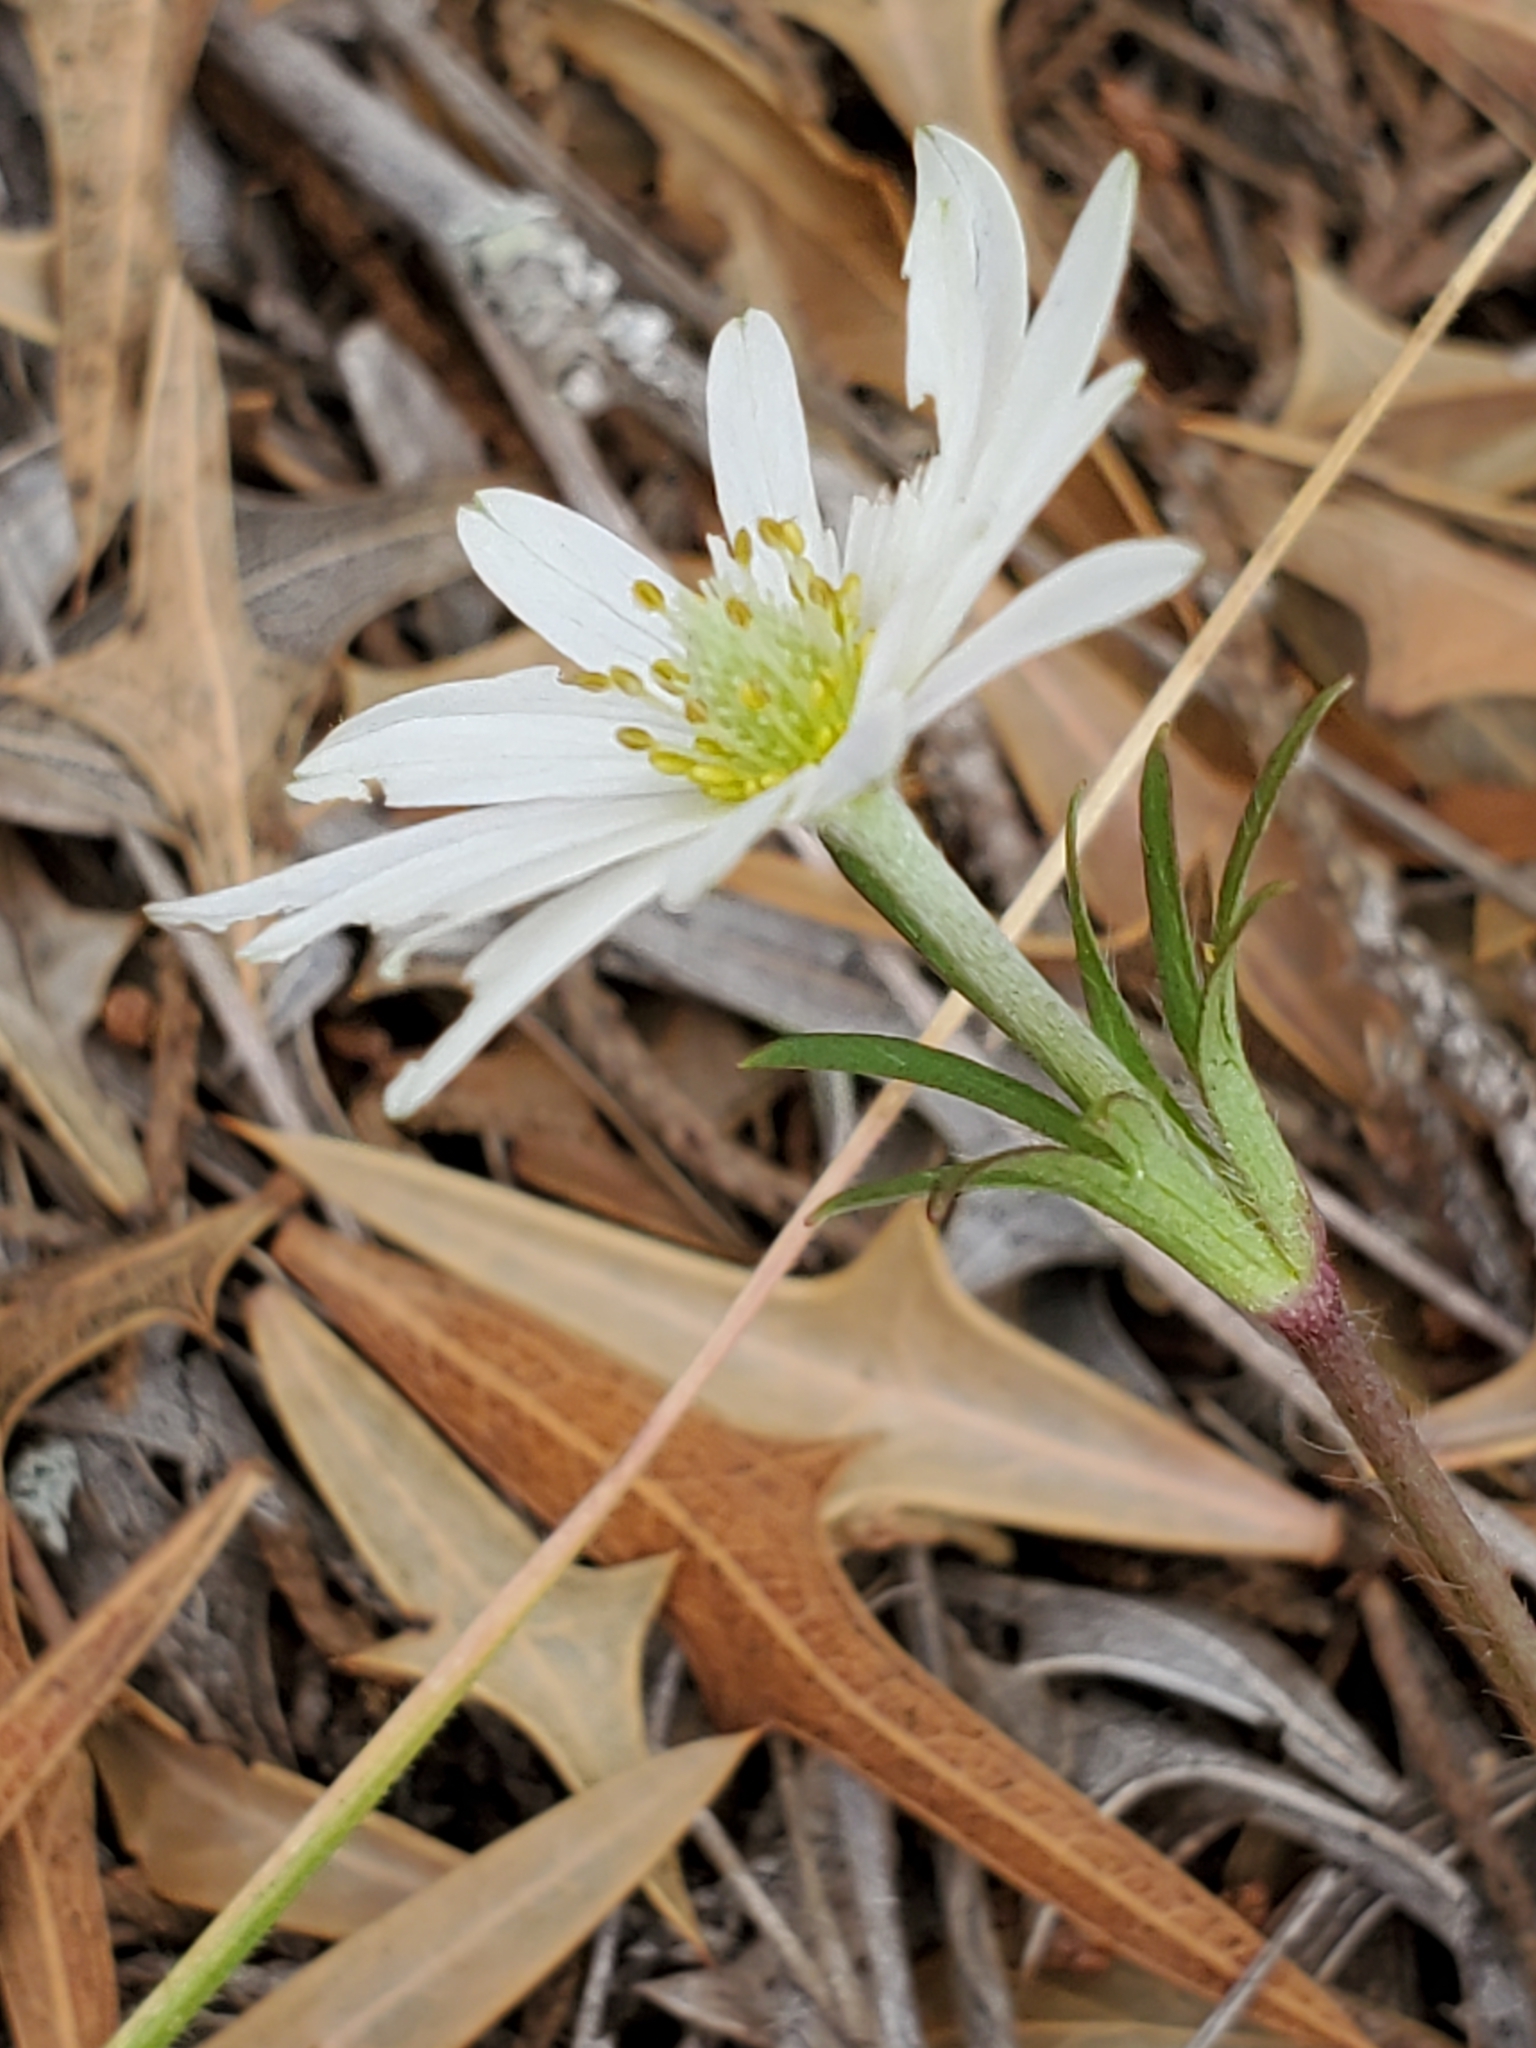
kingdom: Plantae
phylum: Tracheophyta
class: Magnoliopsida
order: Ranunculales
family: Ranunculaceae
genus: Anemone
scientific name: Anemone berlandieri
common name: Ten-petal anemone
